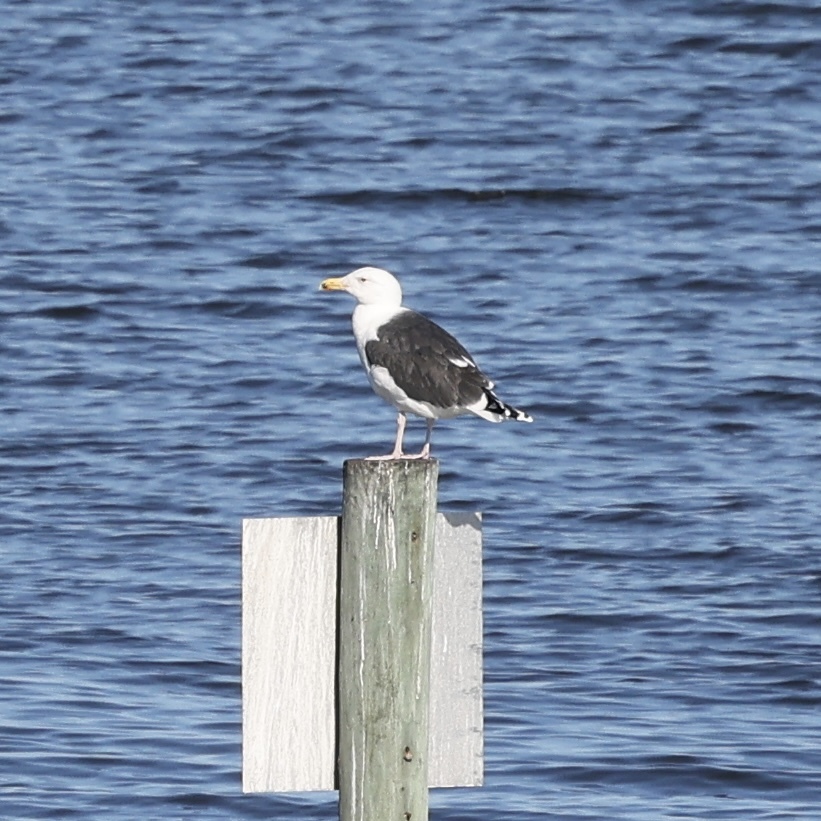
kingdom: Animalia
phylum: Chordata
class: Aves
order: Charadriiformes
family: Laridae
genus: Larus
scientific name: Larus marinus
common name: Great black-backed gull
